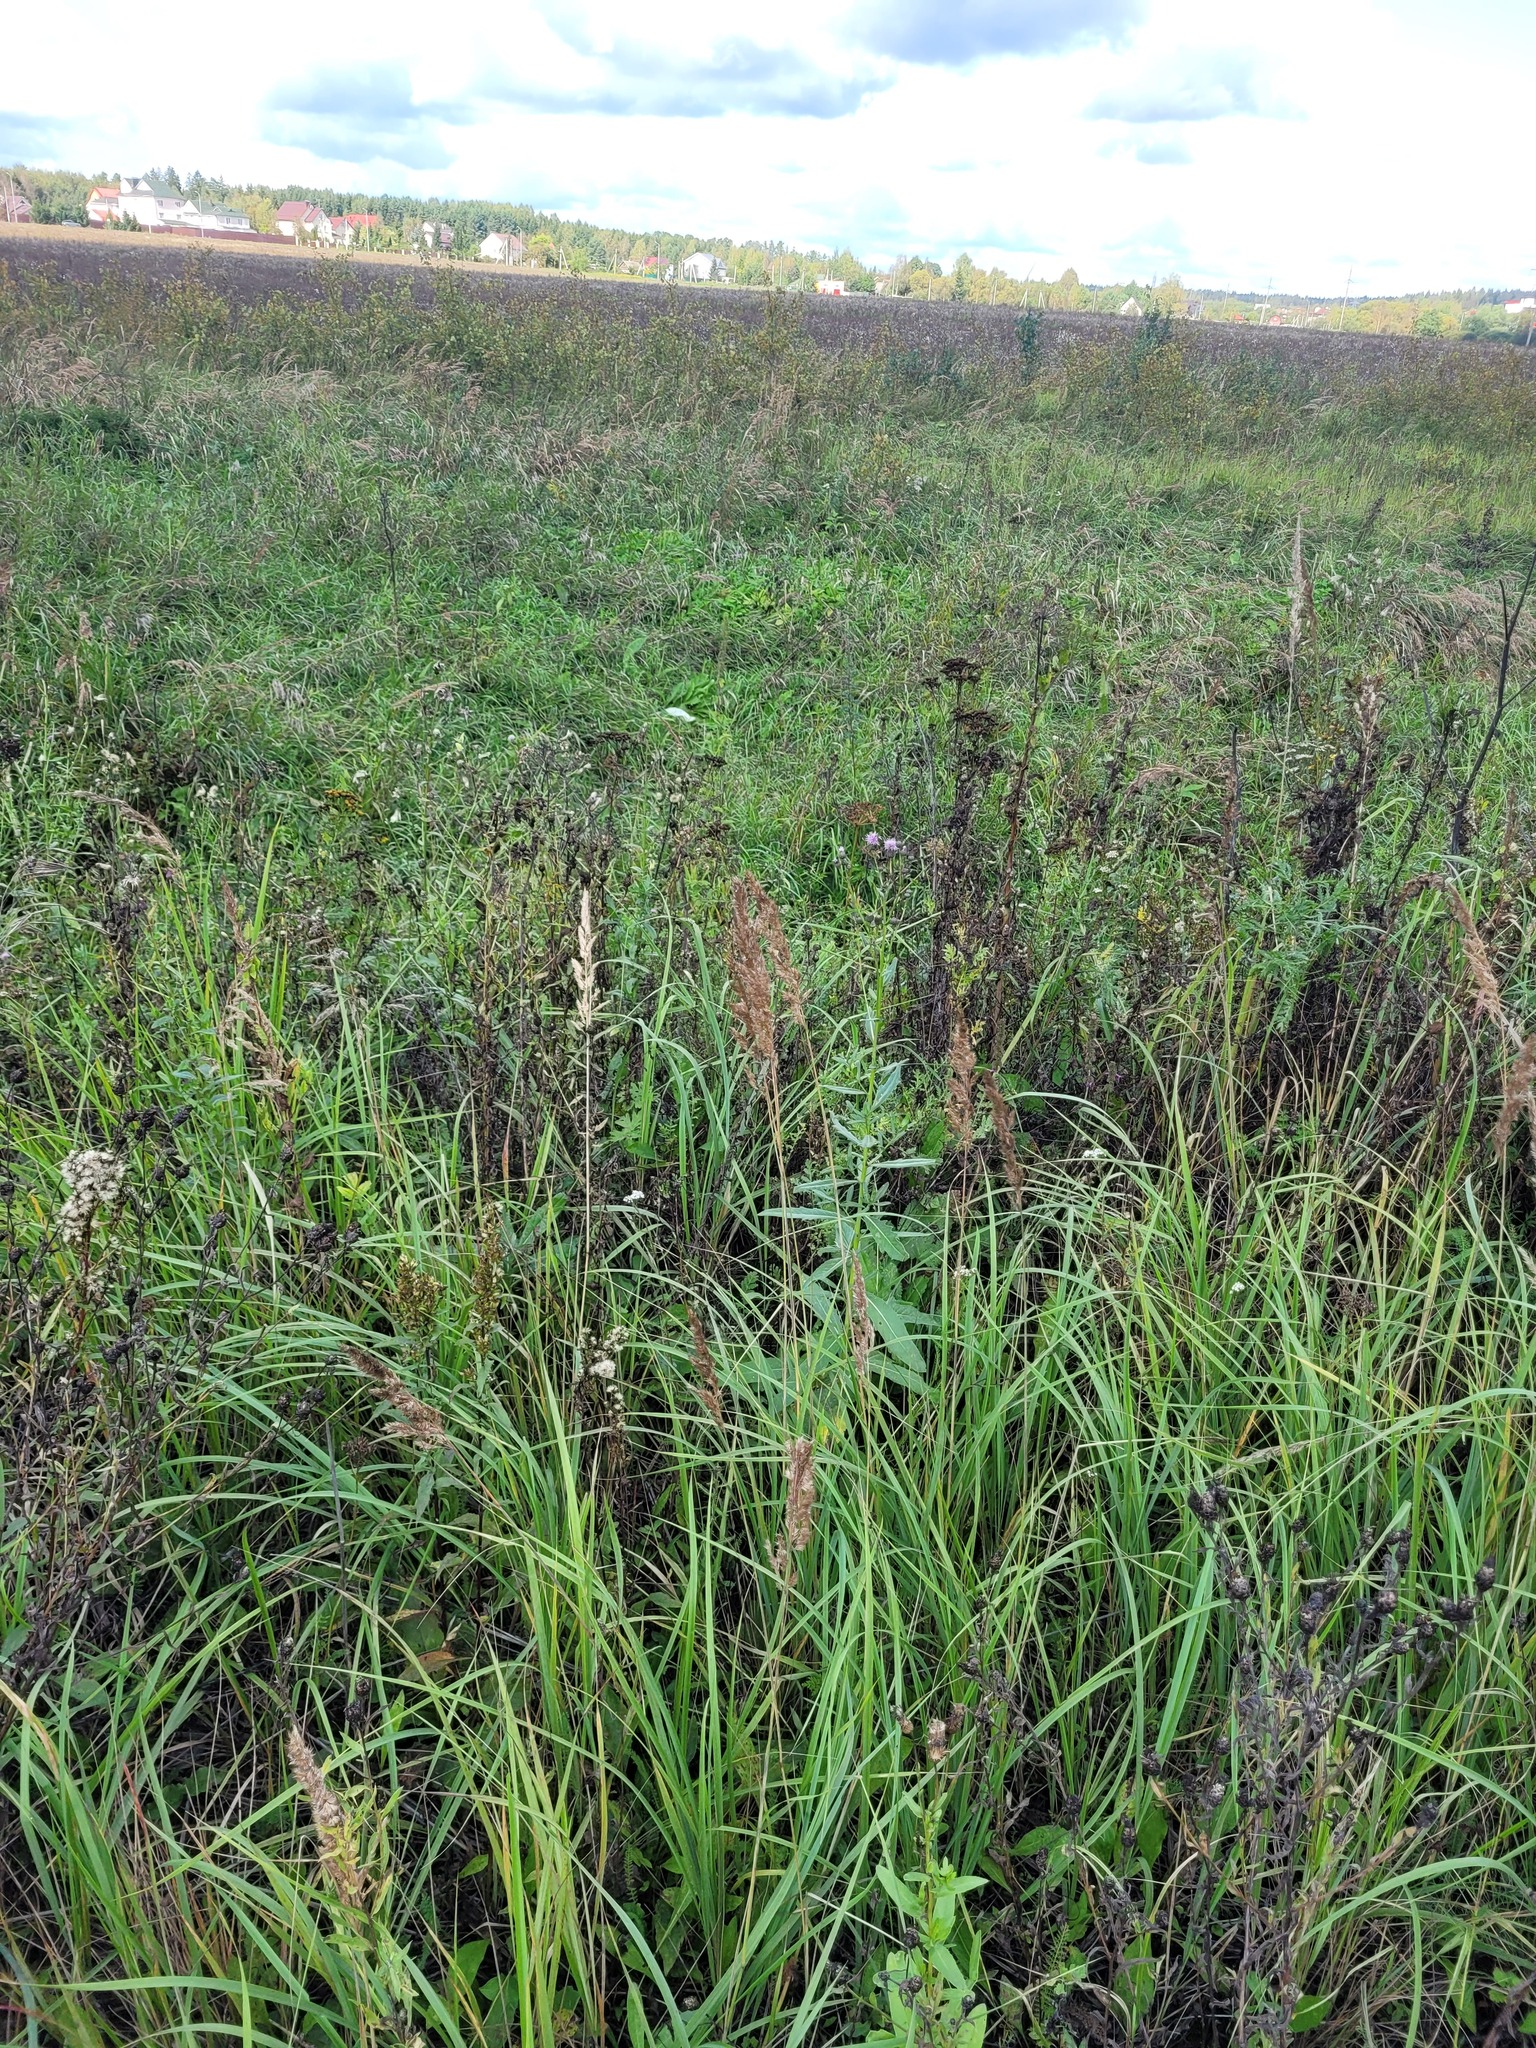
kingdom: Plantae
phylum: Tracheophyta
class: Liliopsida
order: Poales
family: Poaceae
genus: Calamagrostis
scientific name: Calamagrostis epigejos
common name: Wood small-reed
